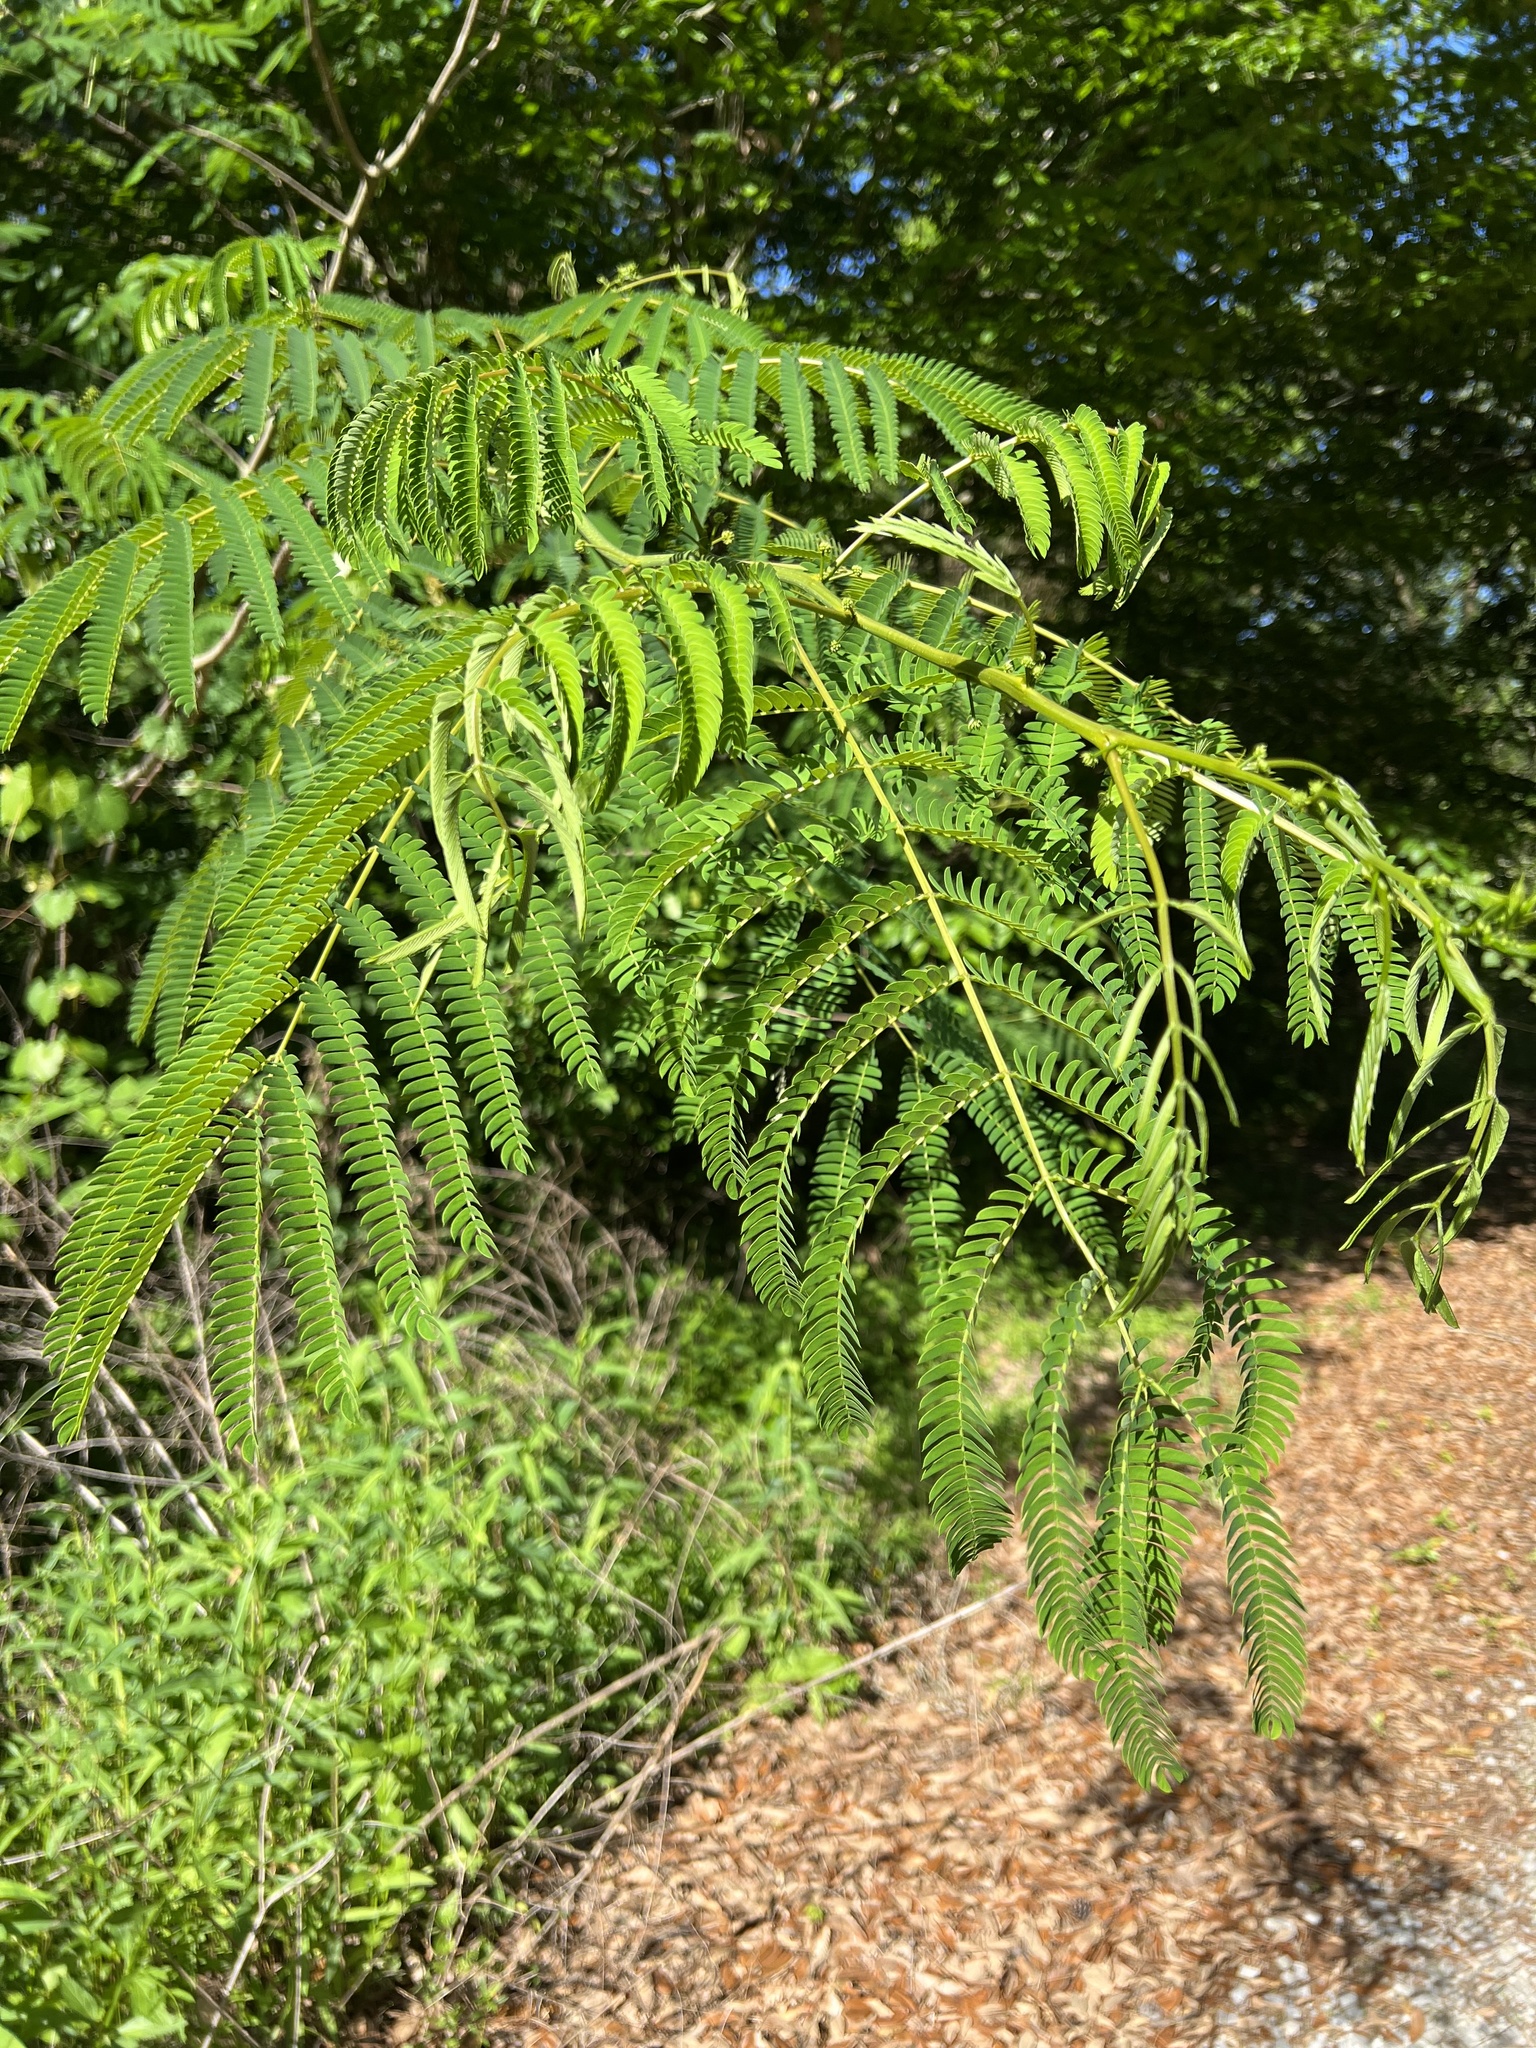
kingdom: Plantae
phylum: Tracheophyta
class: Magnoliopsida
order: Fabales
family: Fabaceae
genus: Albizia
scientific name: Albizia julibrissin
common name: Silktree
